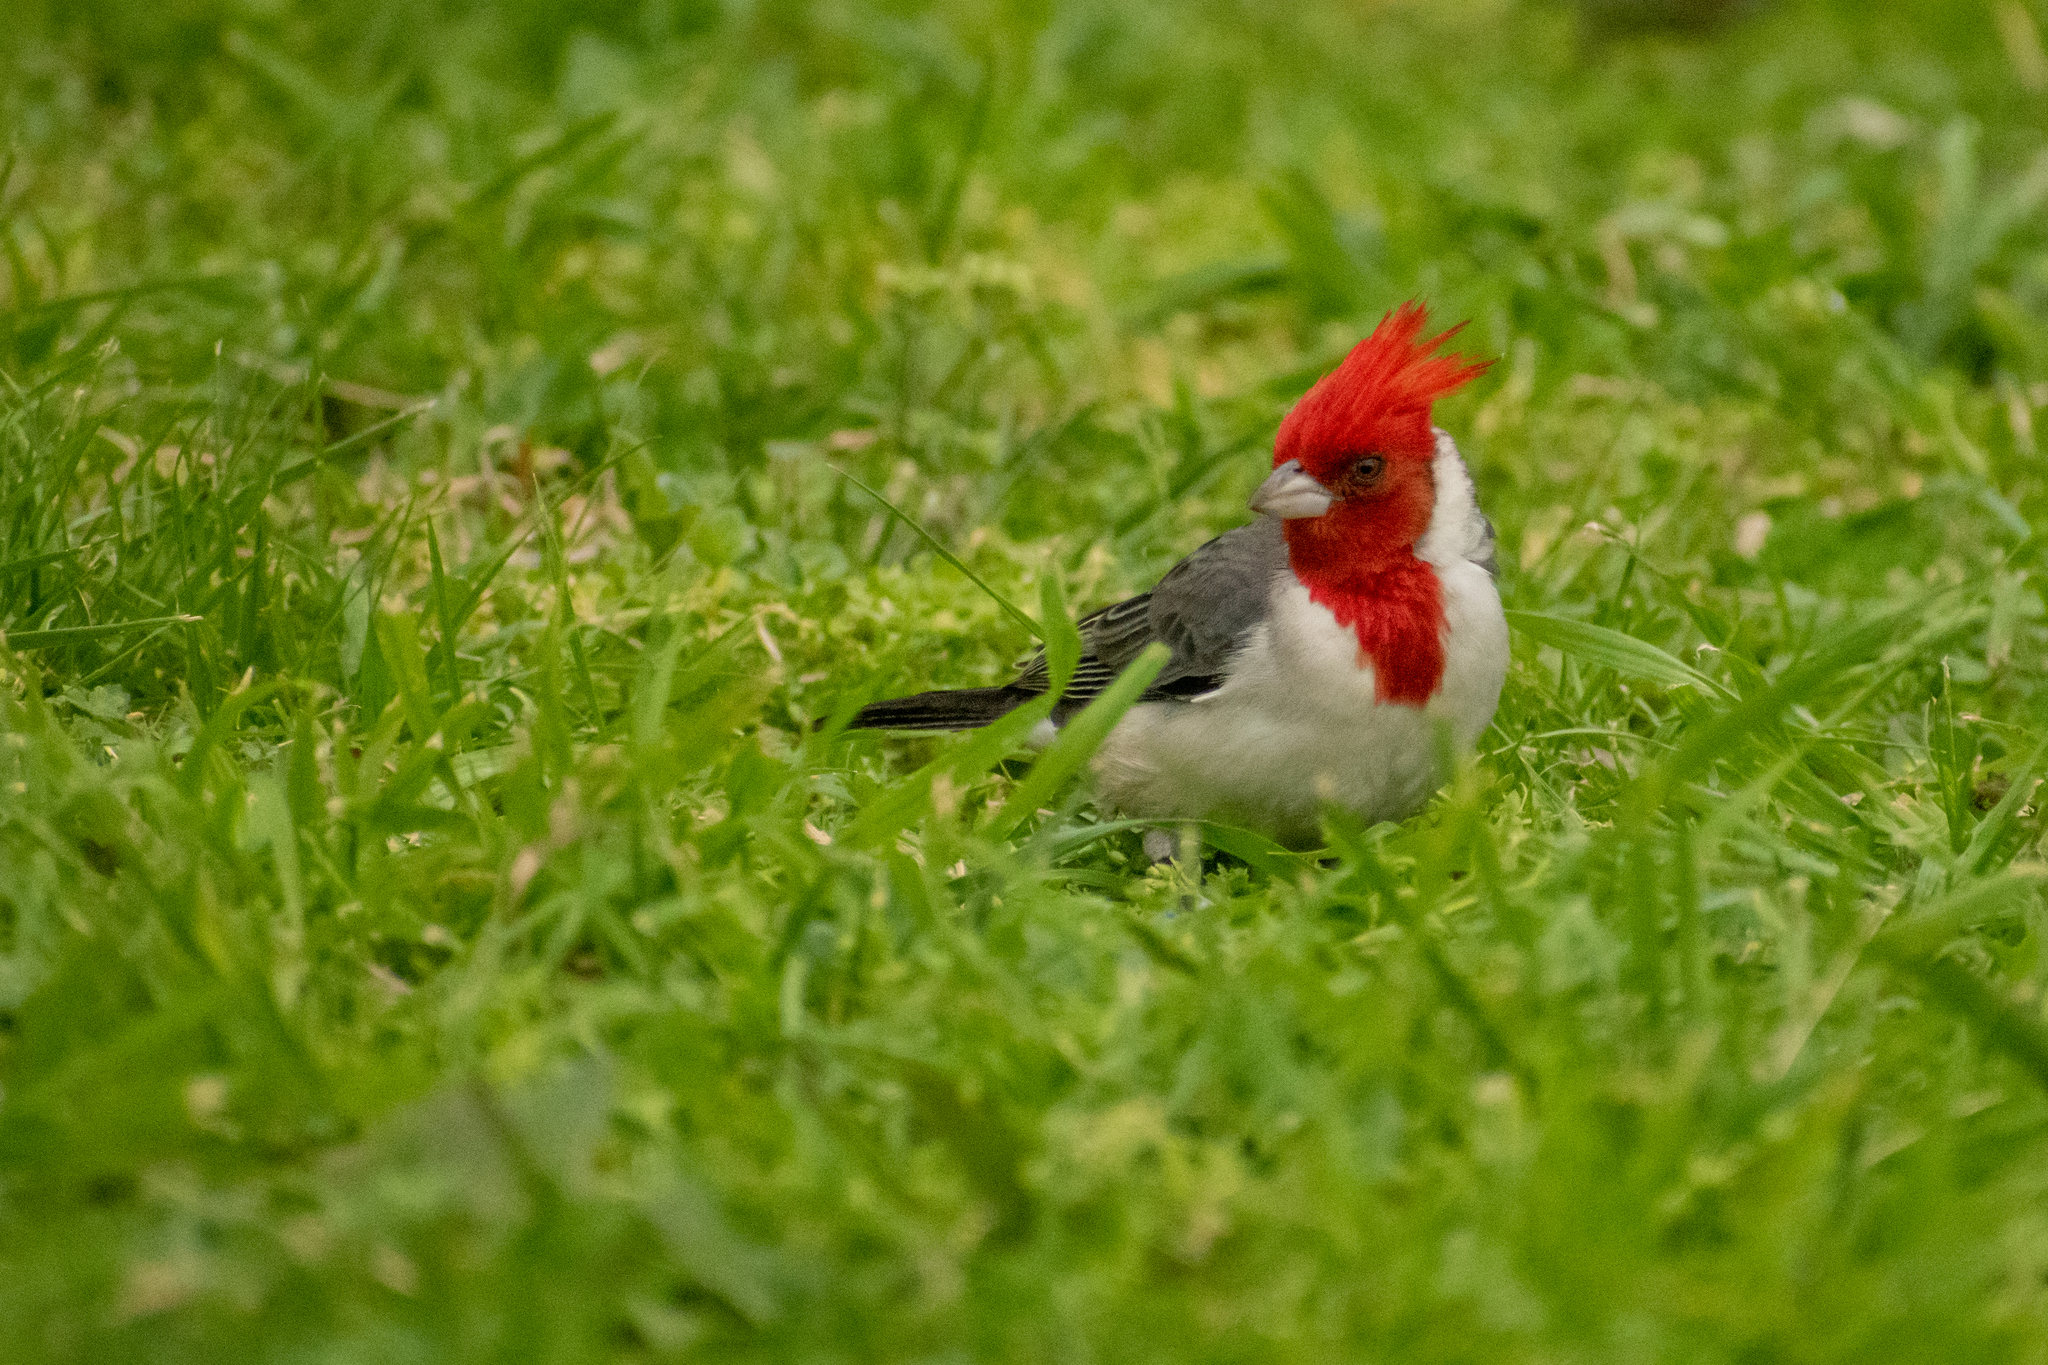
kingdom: Animalia
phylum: Chordata
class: Aves
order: Passeriformes
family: Thraupidae
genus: Paroaria
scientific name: Paroaria coronata
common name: Red-crested cardinal
